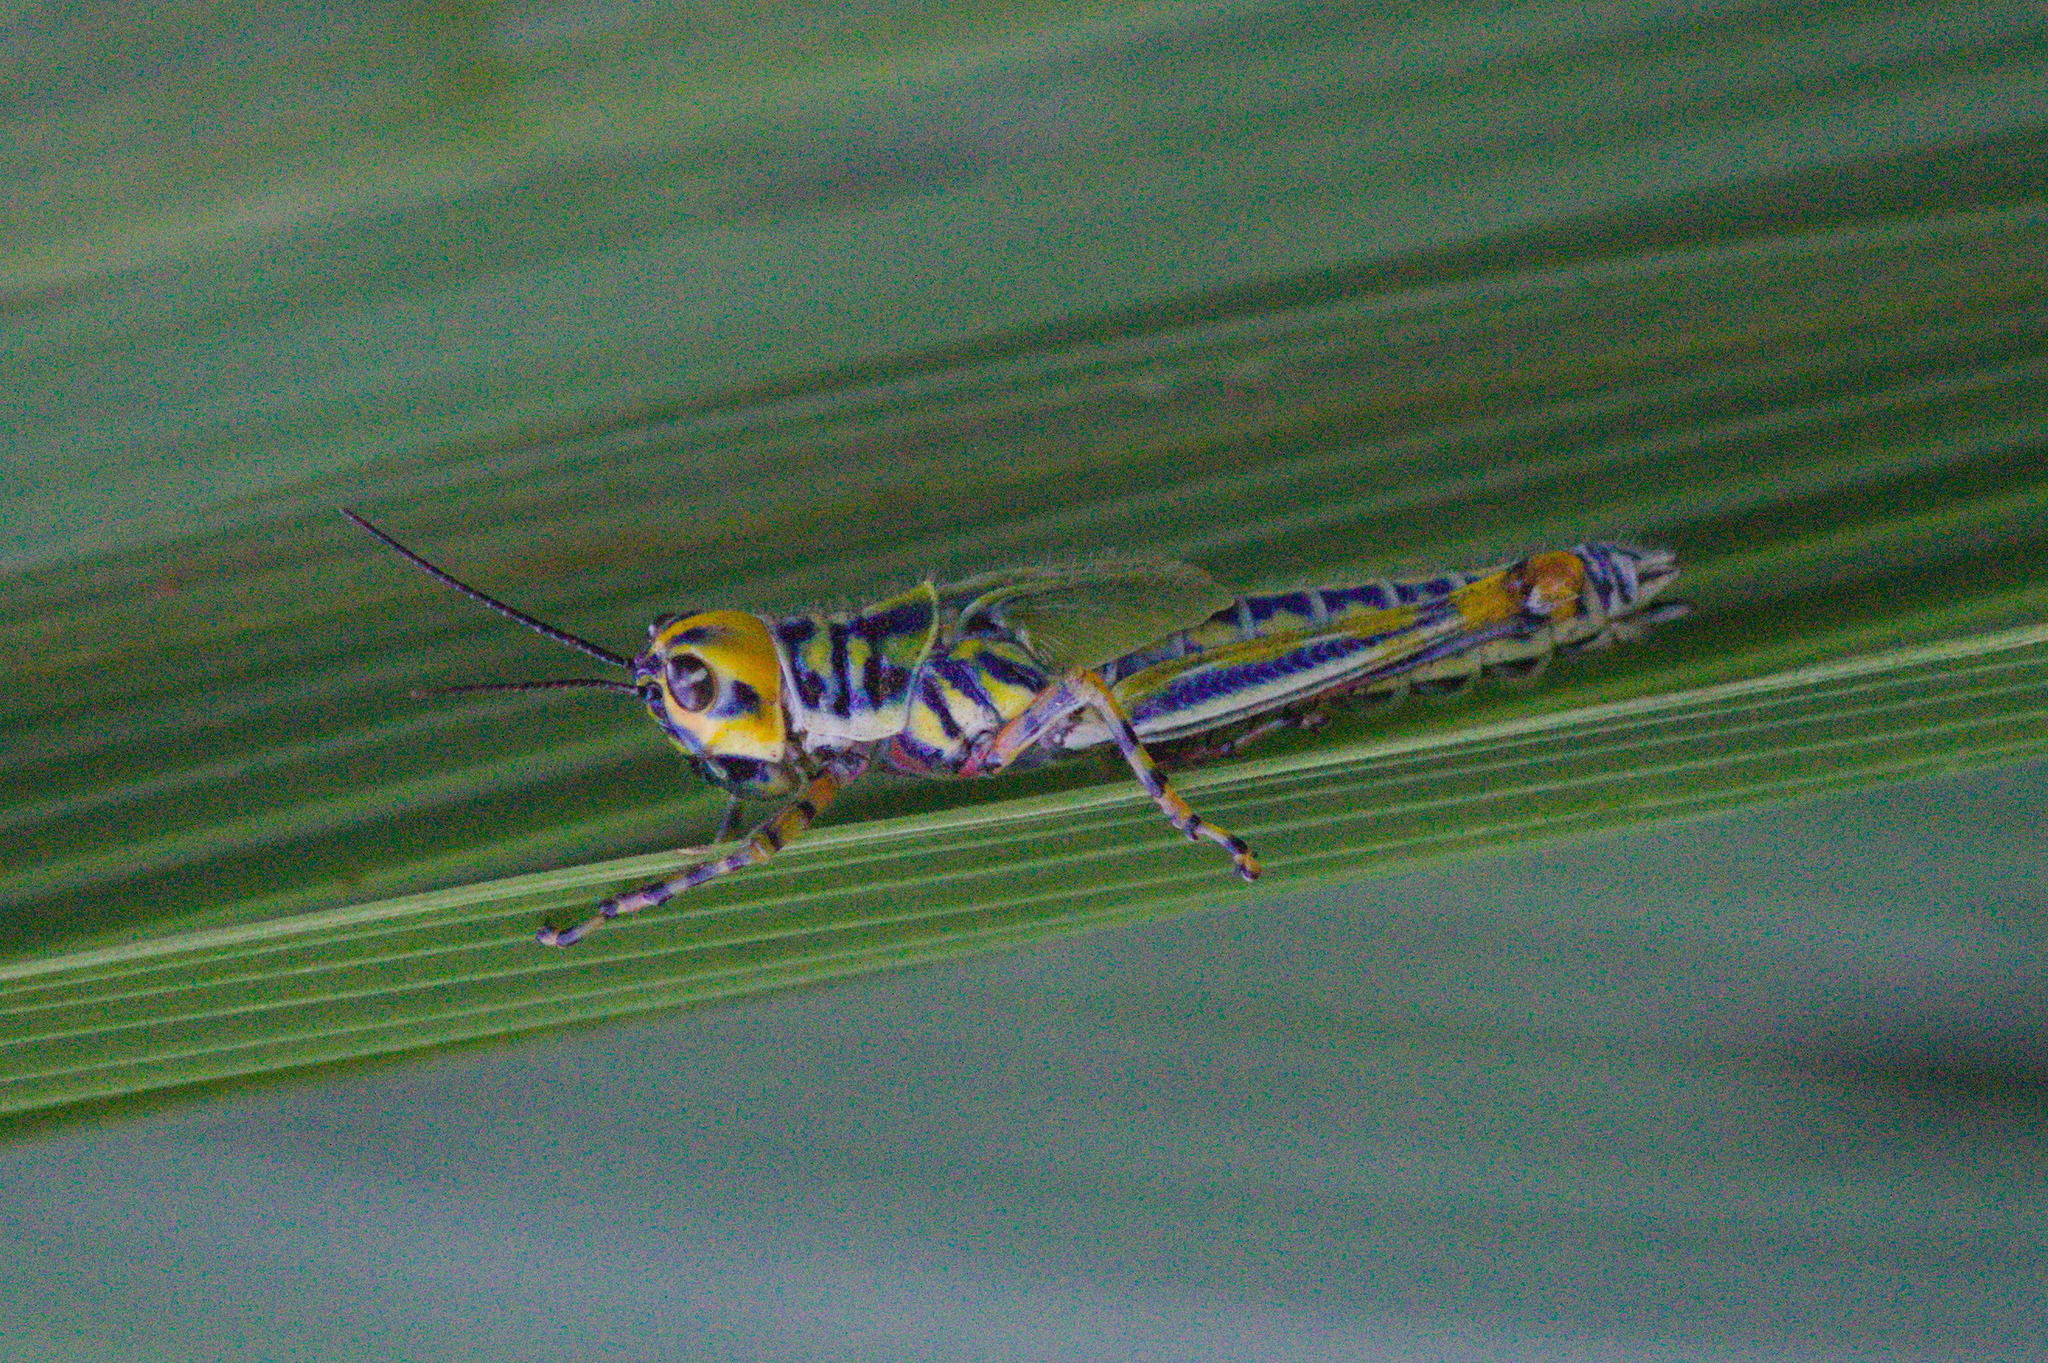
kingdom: Animalia
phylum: Arthropoda
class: Insecta
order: Orthoptera
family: Acrididae
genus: Adimantus
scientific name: Adimantus ornatissimus
